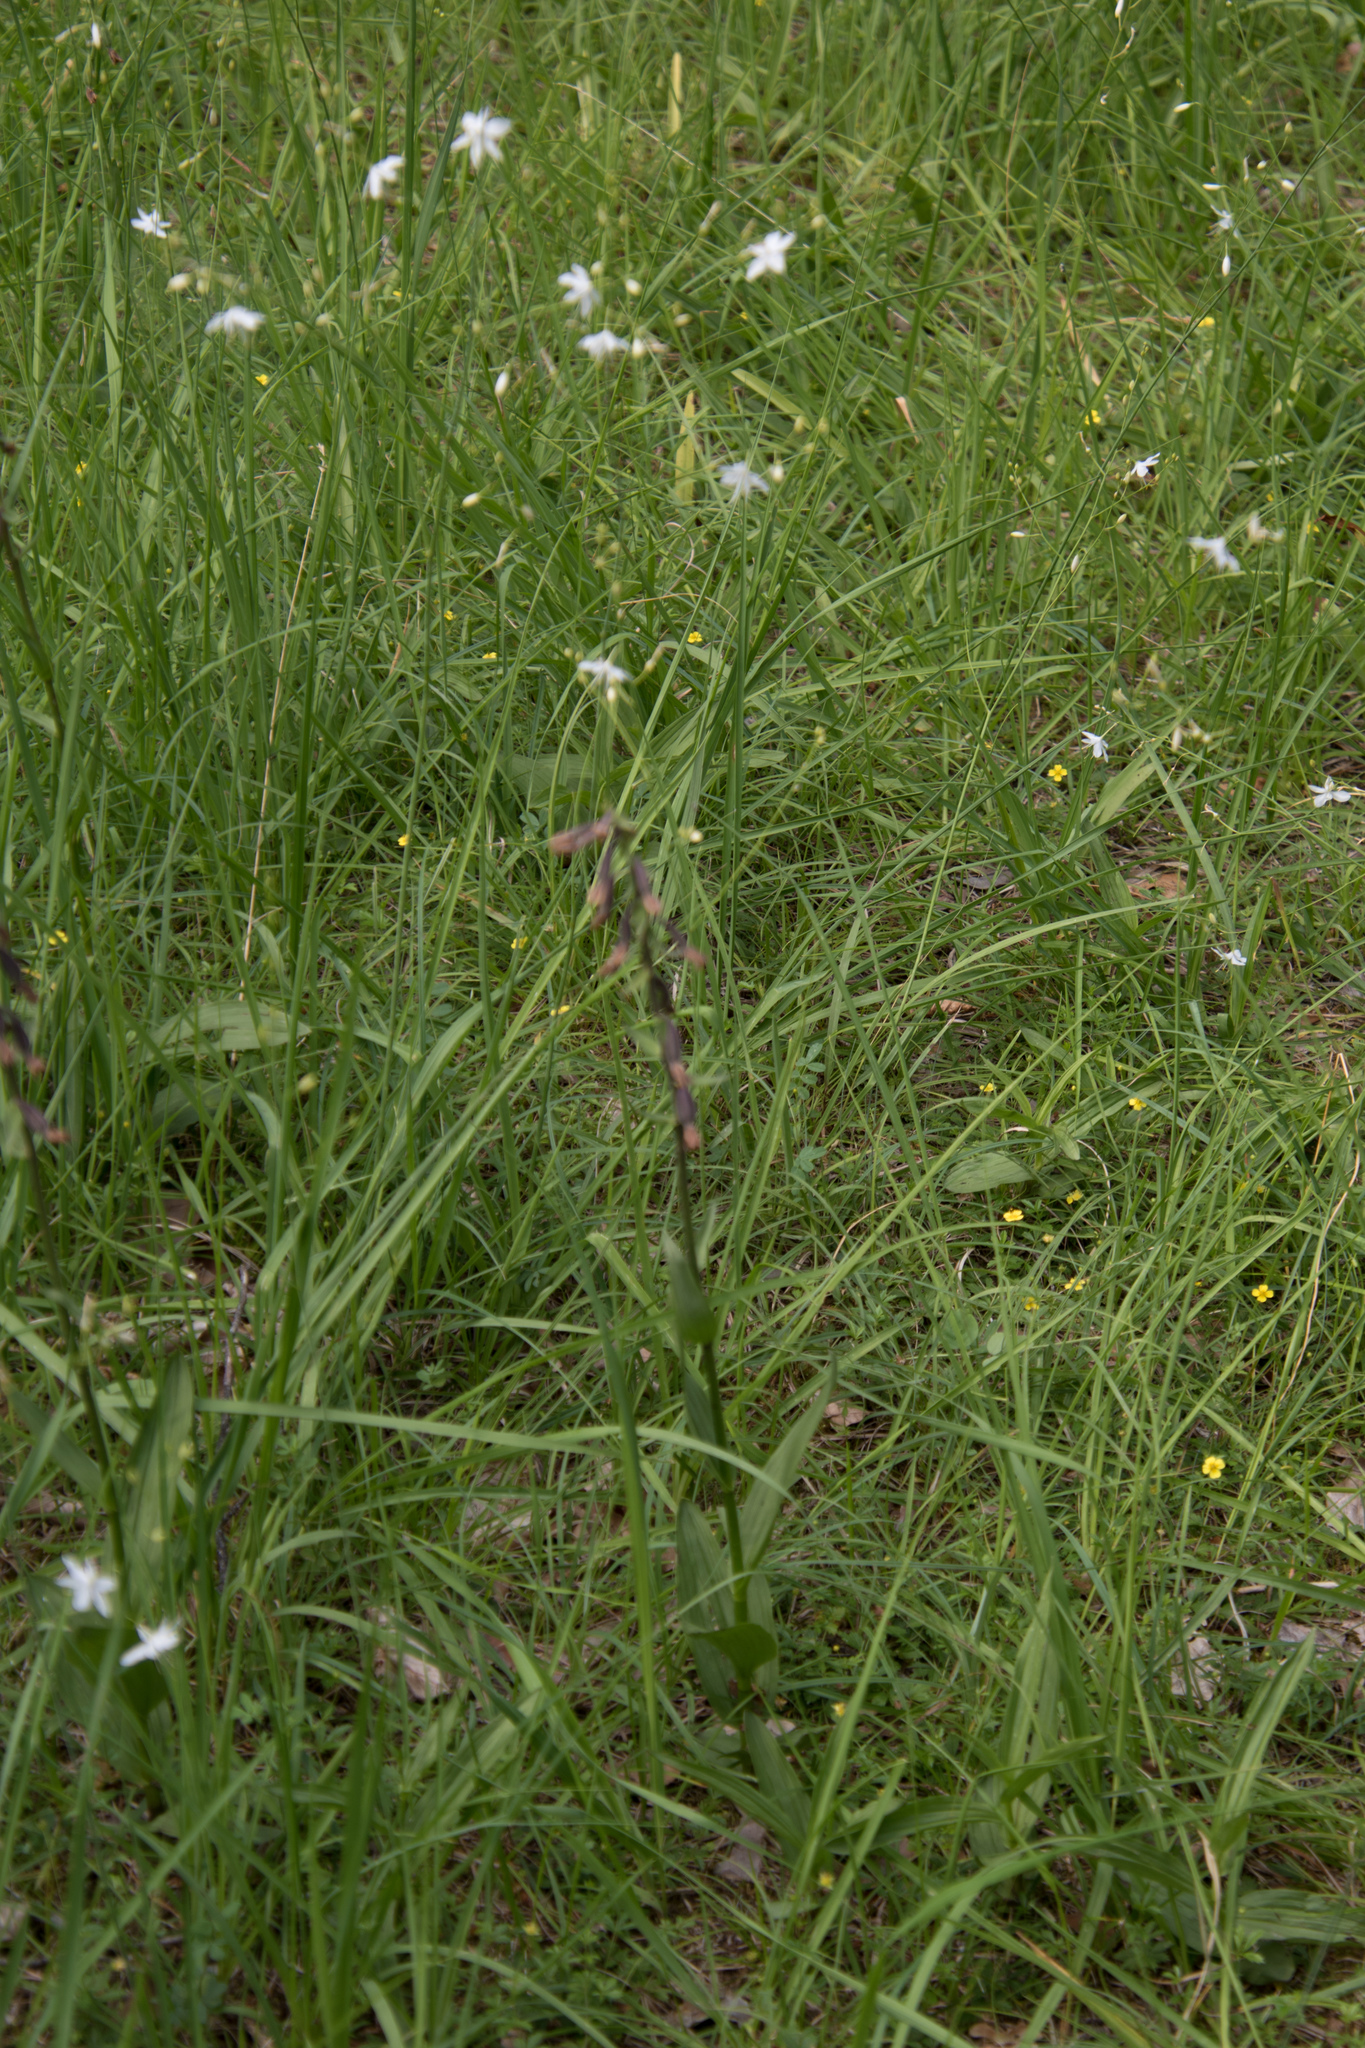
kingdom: Plantae
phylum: Tracheophyta
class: Liliopsida
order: Asparagales
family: Orchidaceae
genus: Epipactis
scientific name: Epipactis palustris
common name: Marsh helleborine
